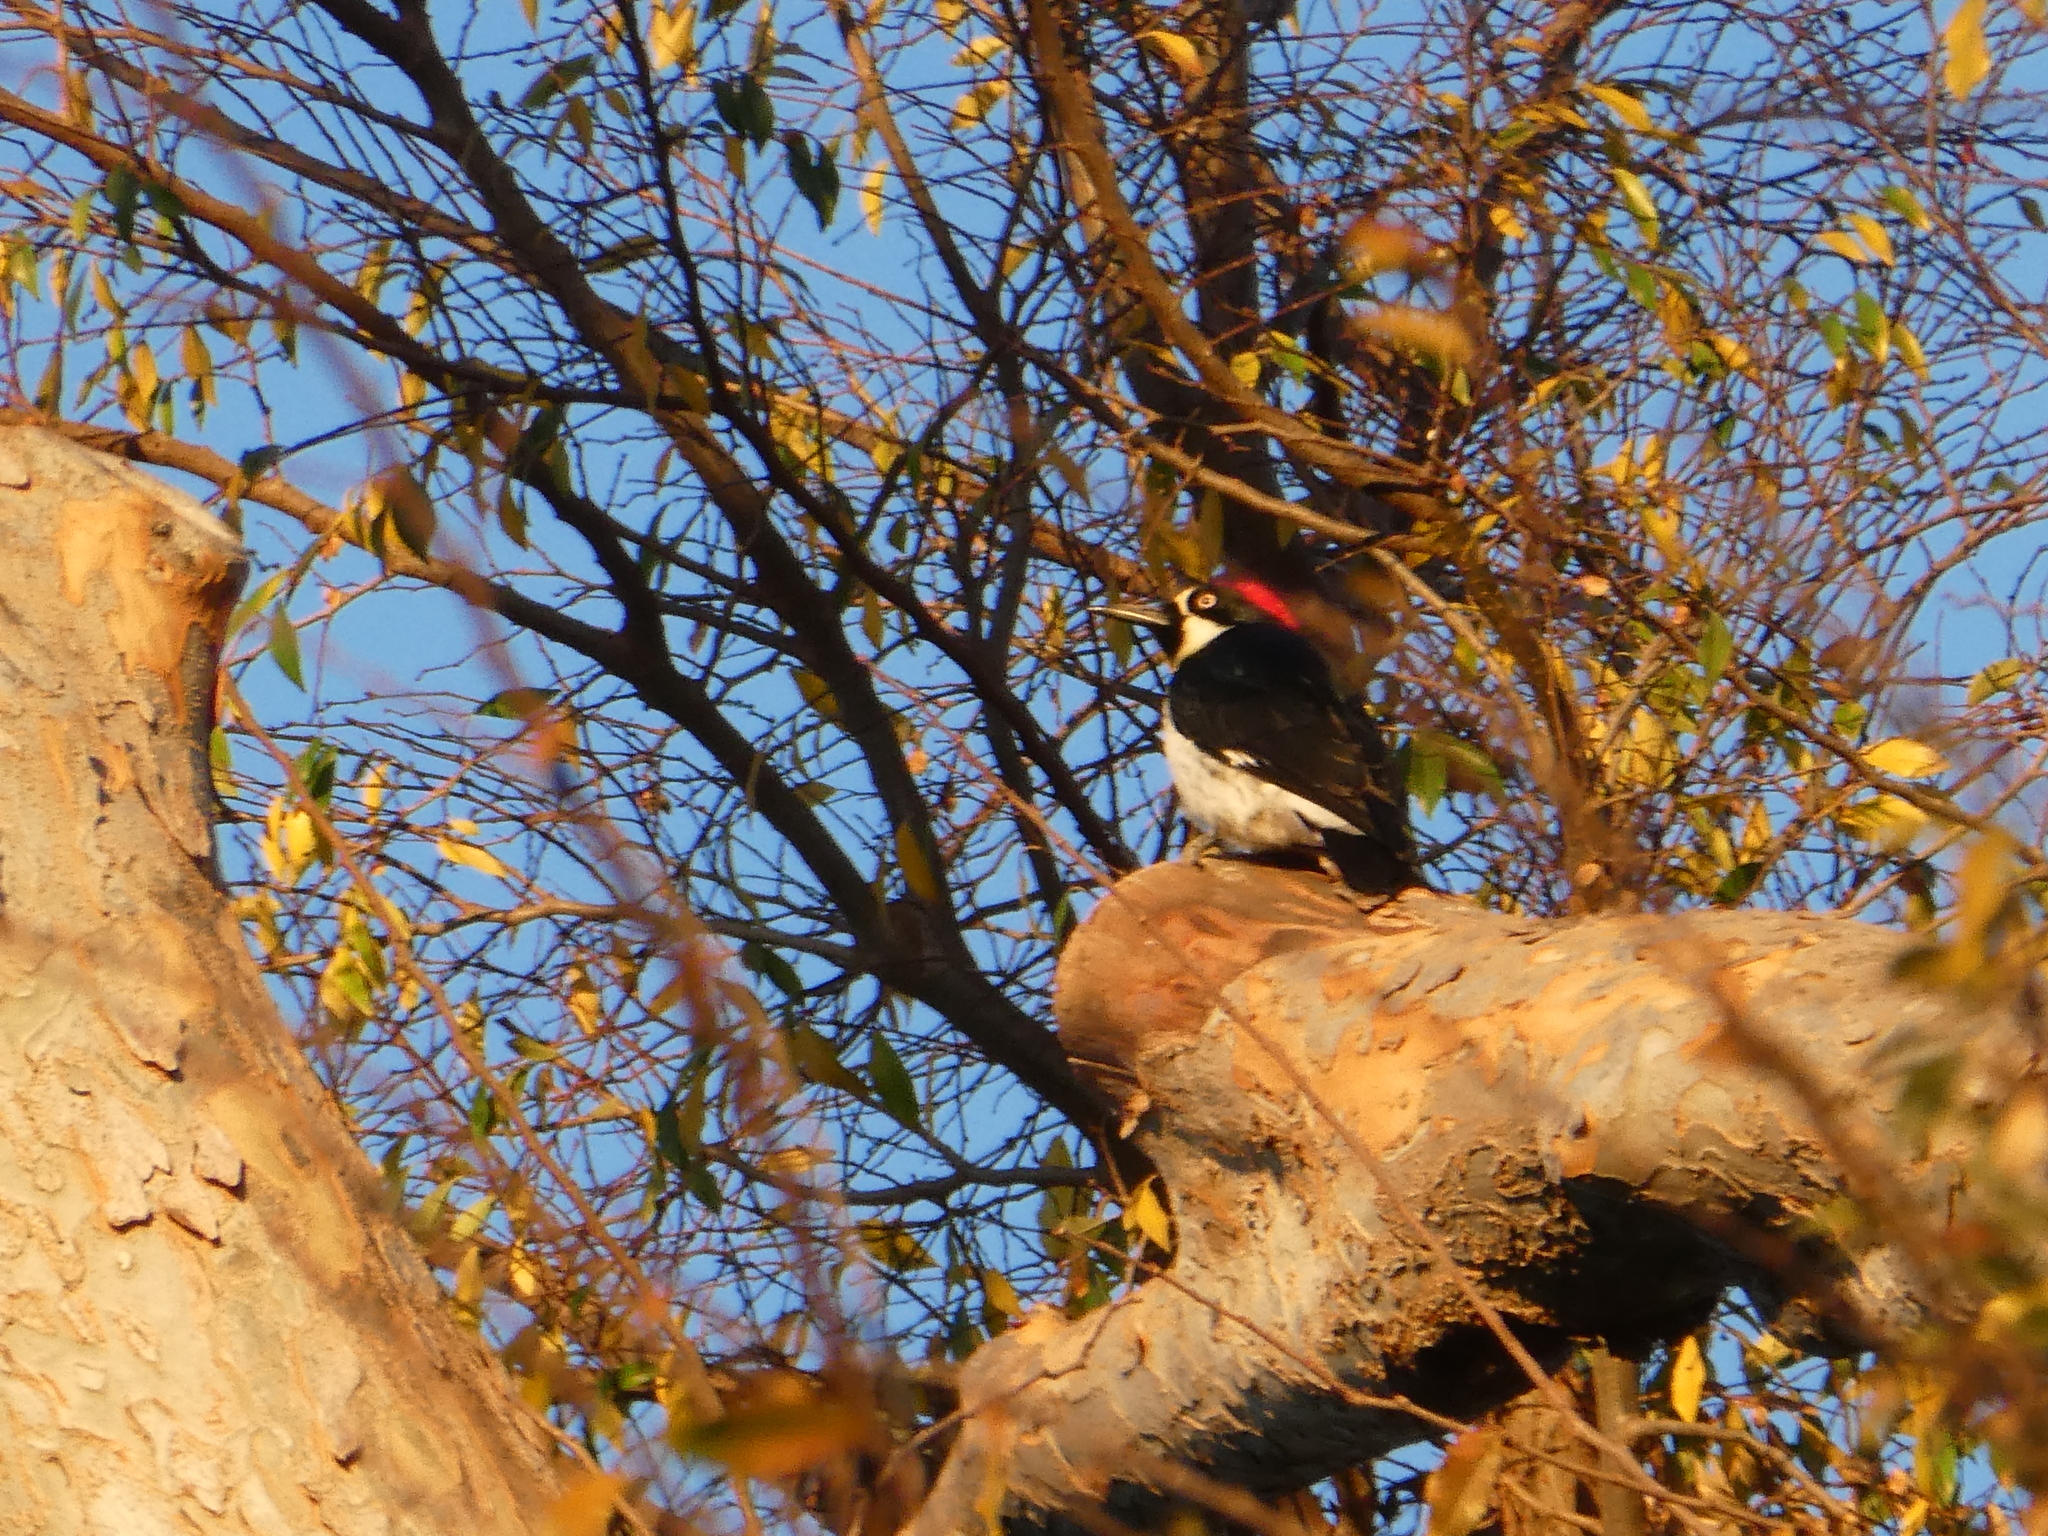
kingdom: Animalia
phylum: Chordata
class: Aves
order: Piciformes
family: Picidae
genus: Melanerpes
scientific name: Melanerpes formicivorus
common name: Acorn woodpecker
